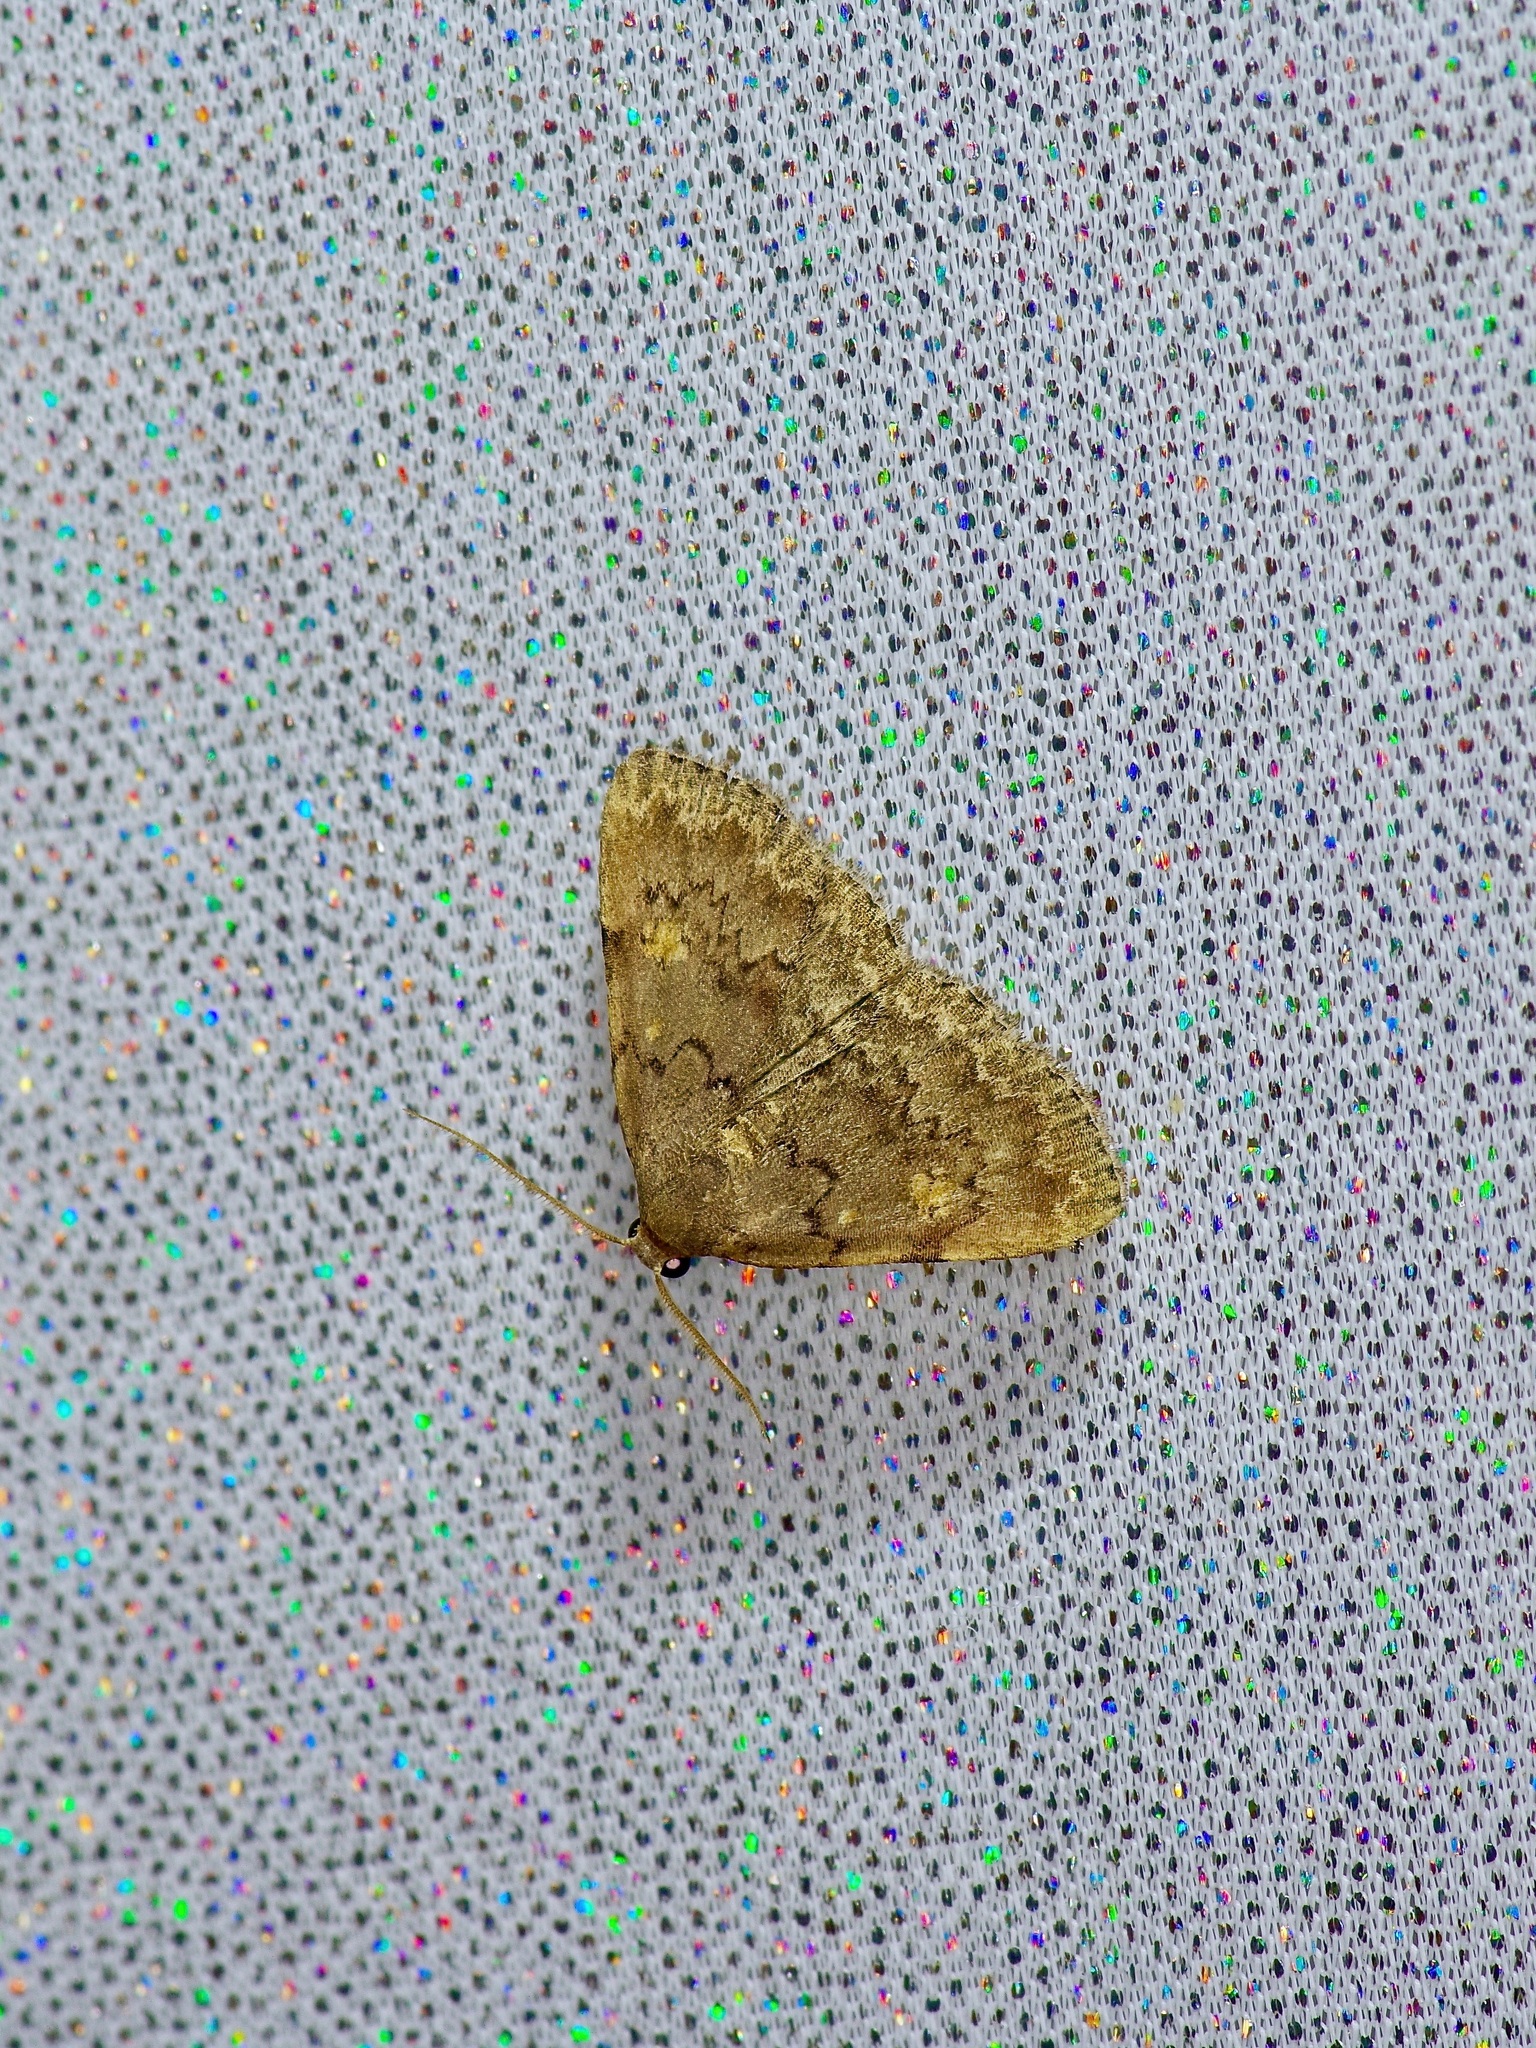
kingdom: Animalia
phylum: Arthropoda
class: Insecta
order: Lepidoptera
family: Erebidae
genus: Idia
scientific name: Idia aemula
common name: Common idia moth
